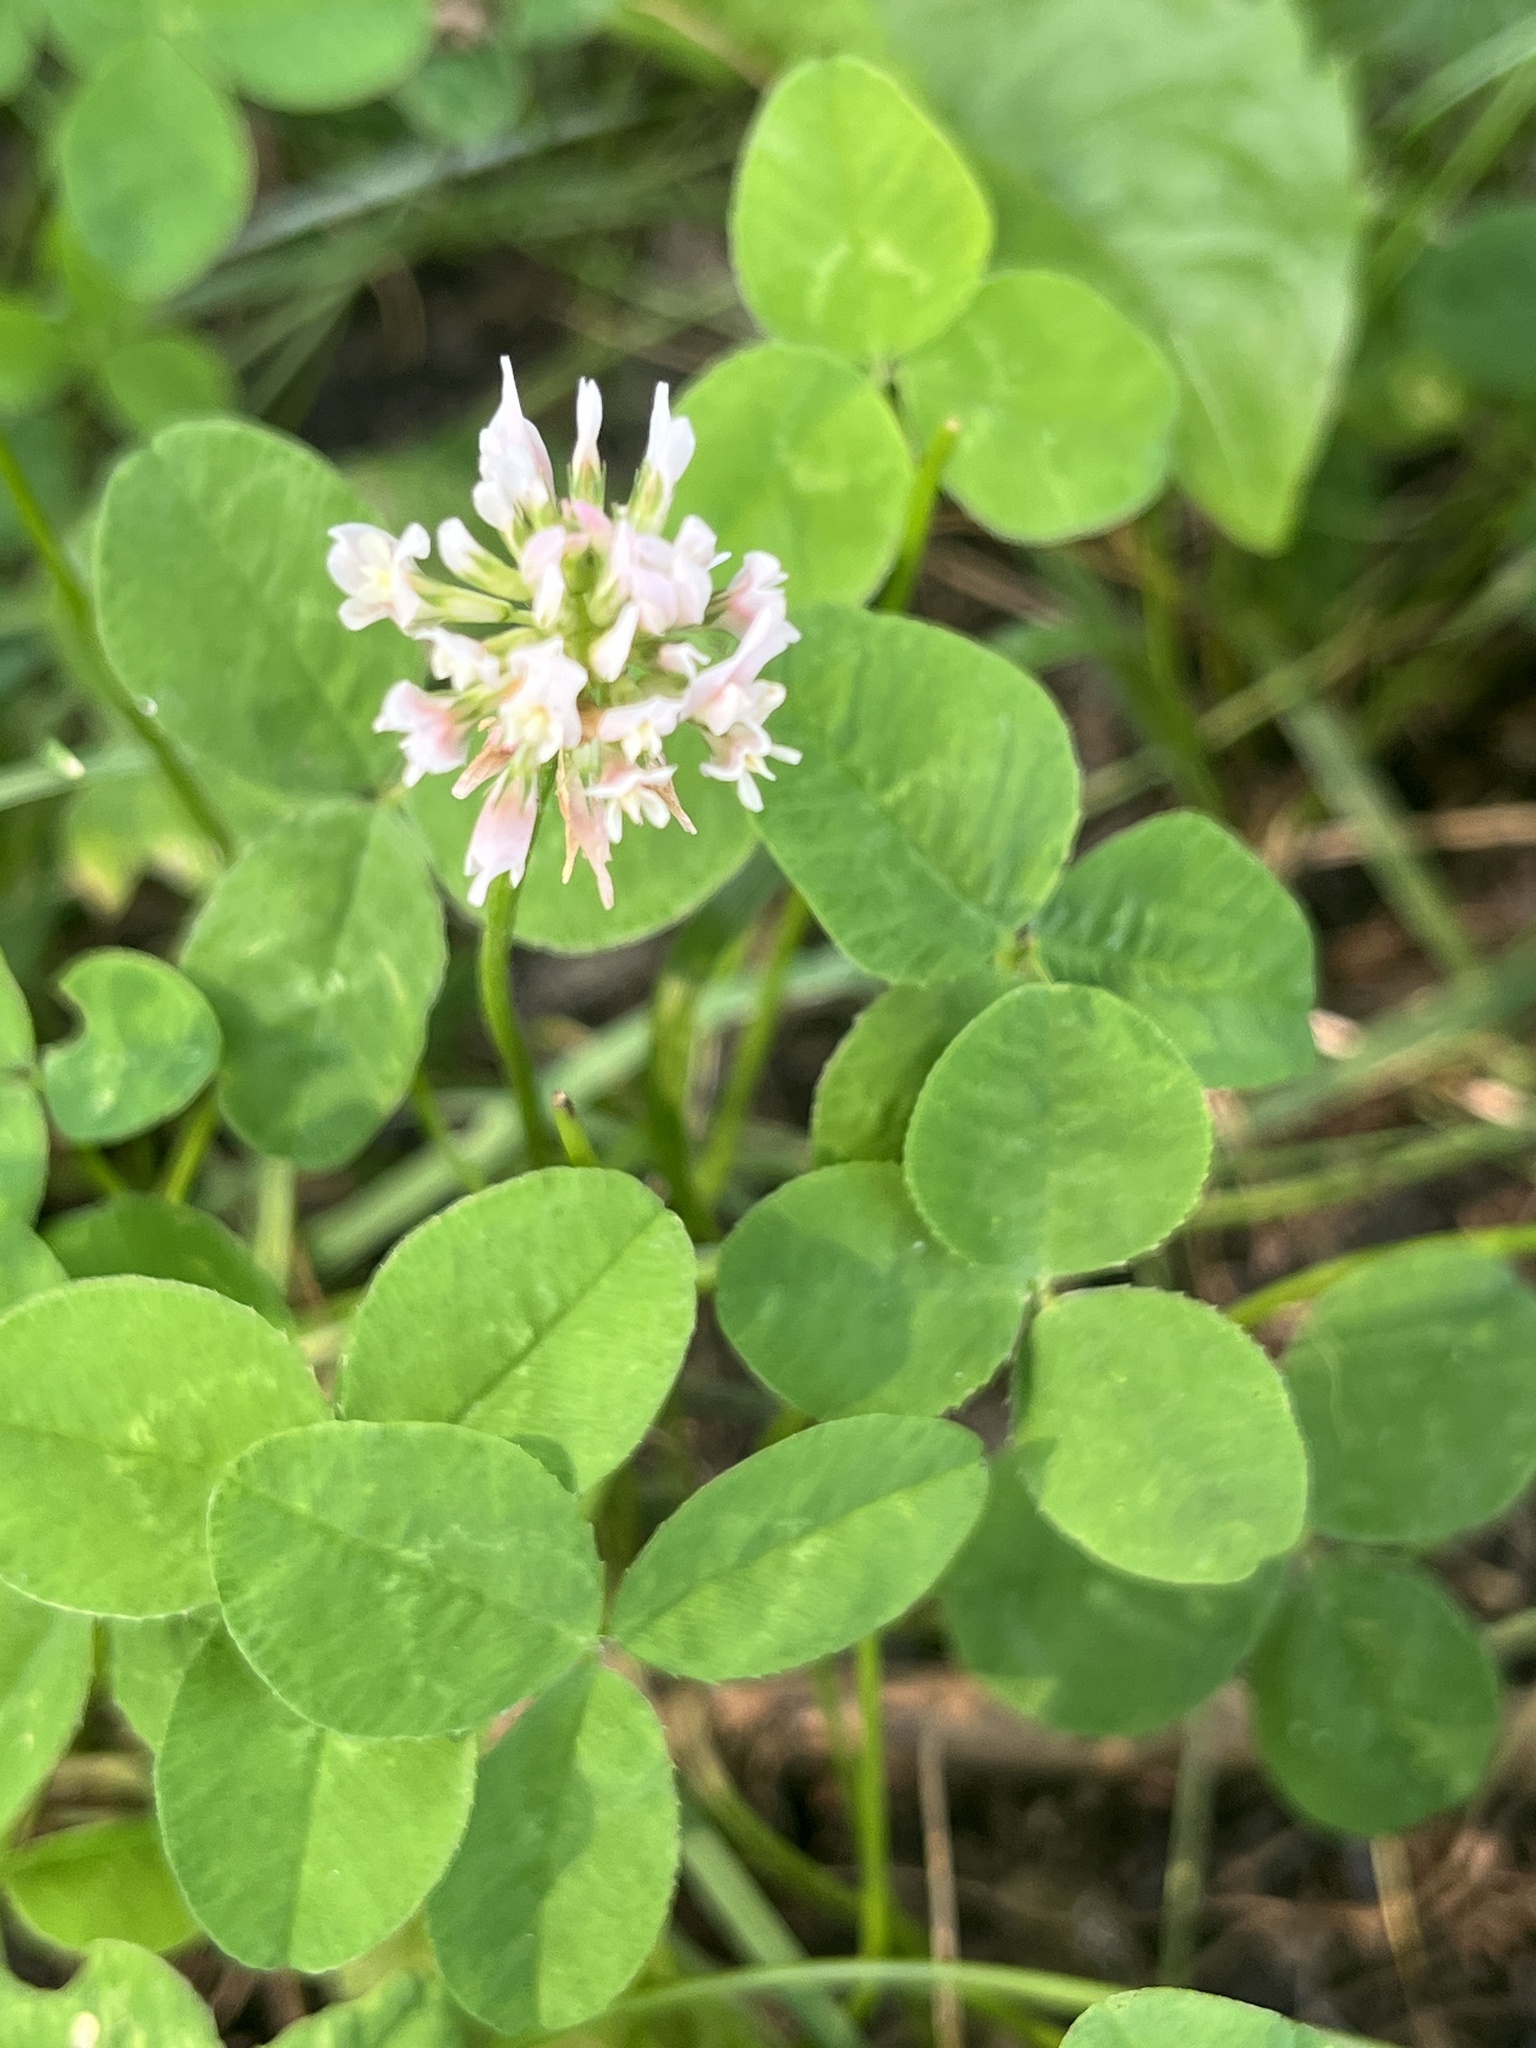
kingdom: Plantae
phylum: Tracheophyta
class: Magnoliopsida
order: Fabales
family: Fabaceae
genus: Trifolium
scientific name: Trifolium repens
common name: White clover
